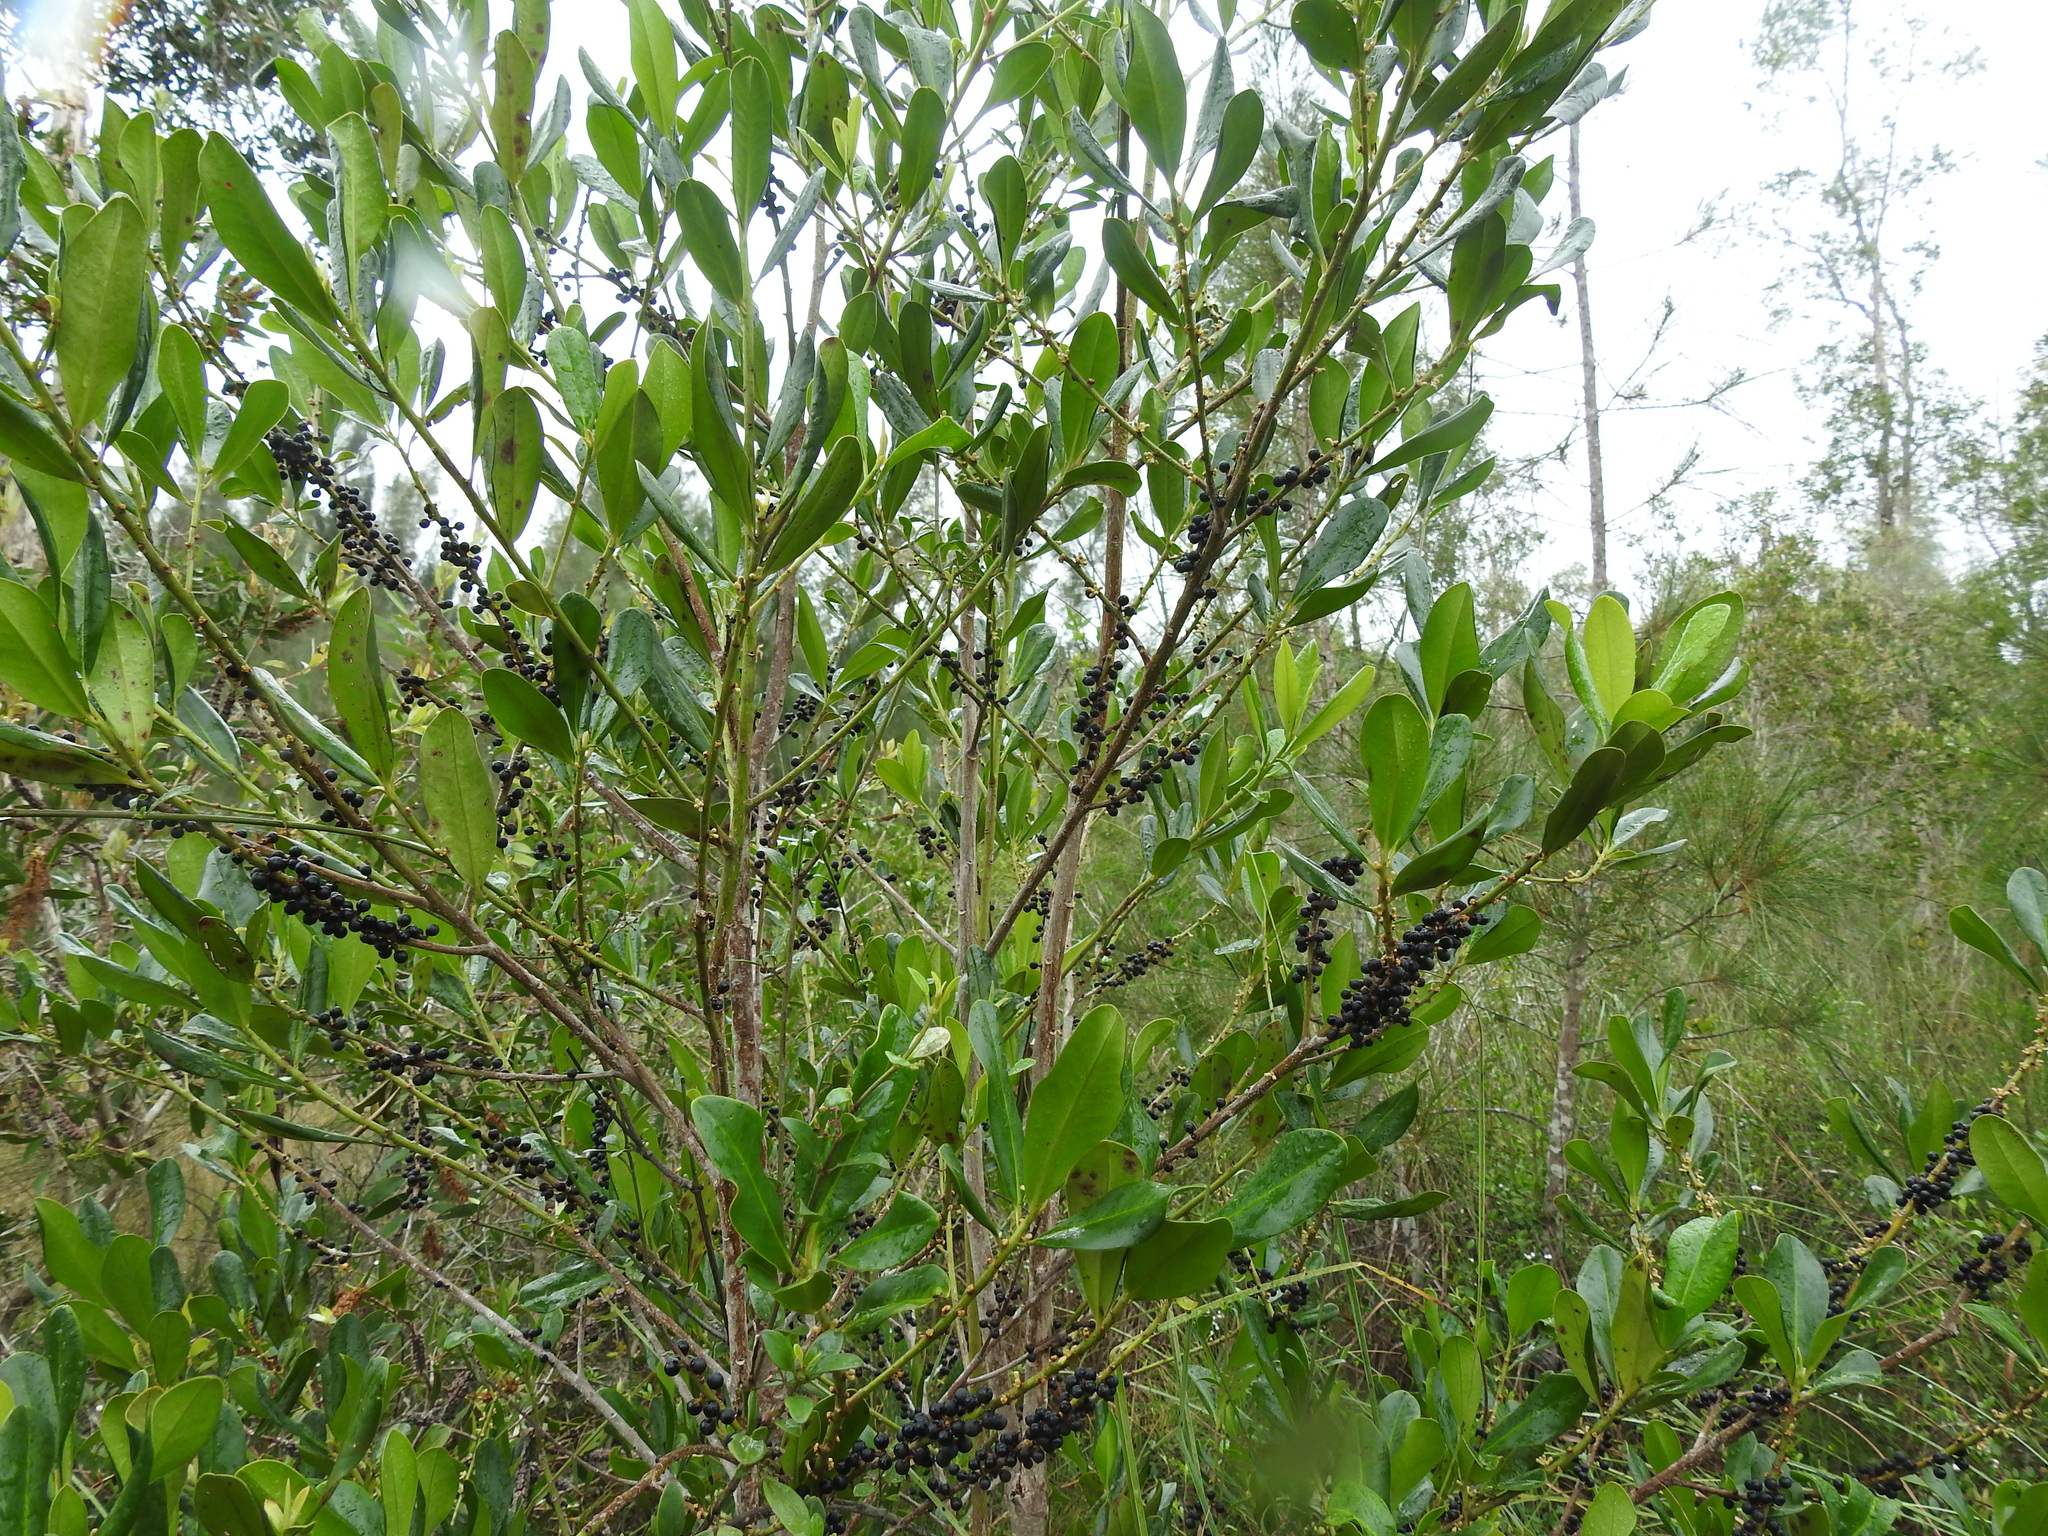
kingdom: Plantae
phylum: Tracheophyta
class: Magnoliopsida
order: Ericales
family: Primulaceae
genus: Myrsine
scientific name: Myrsine floridana
